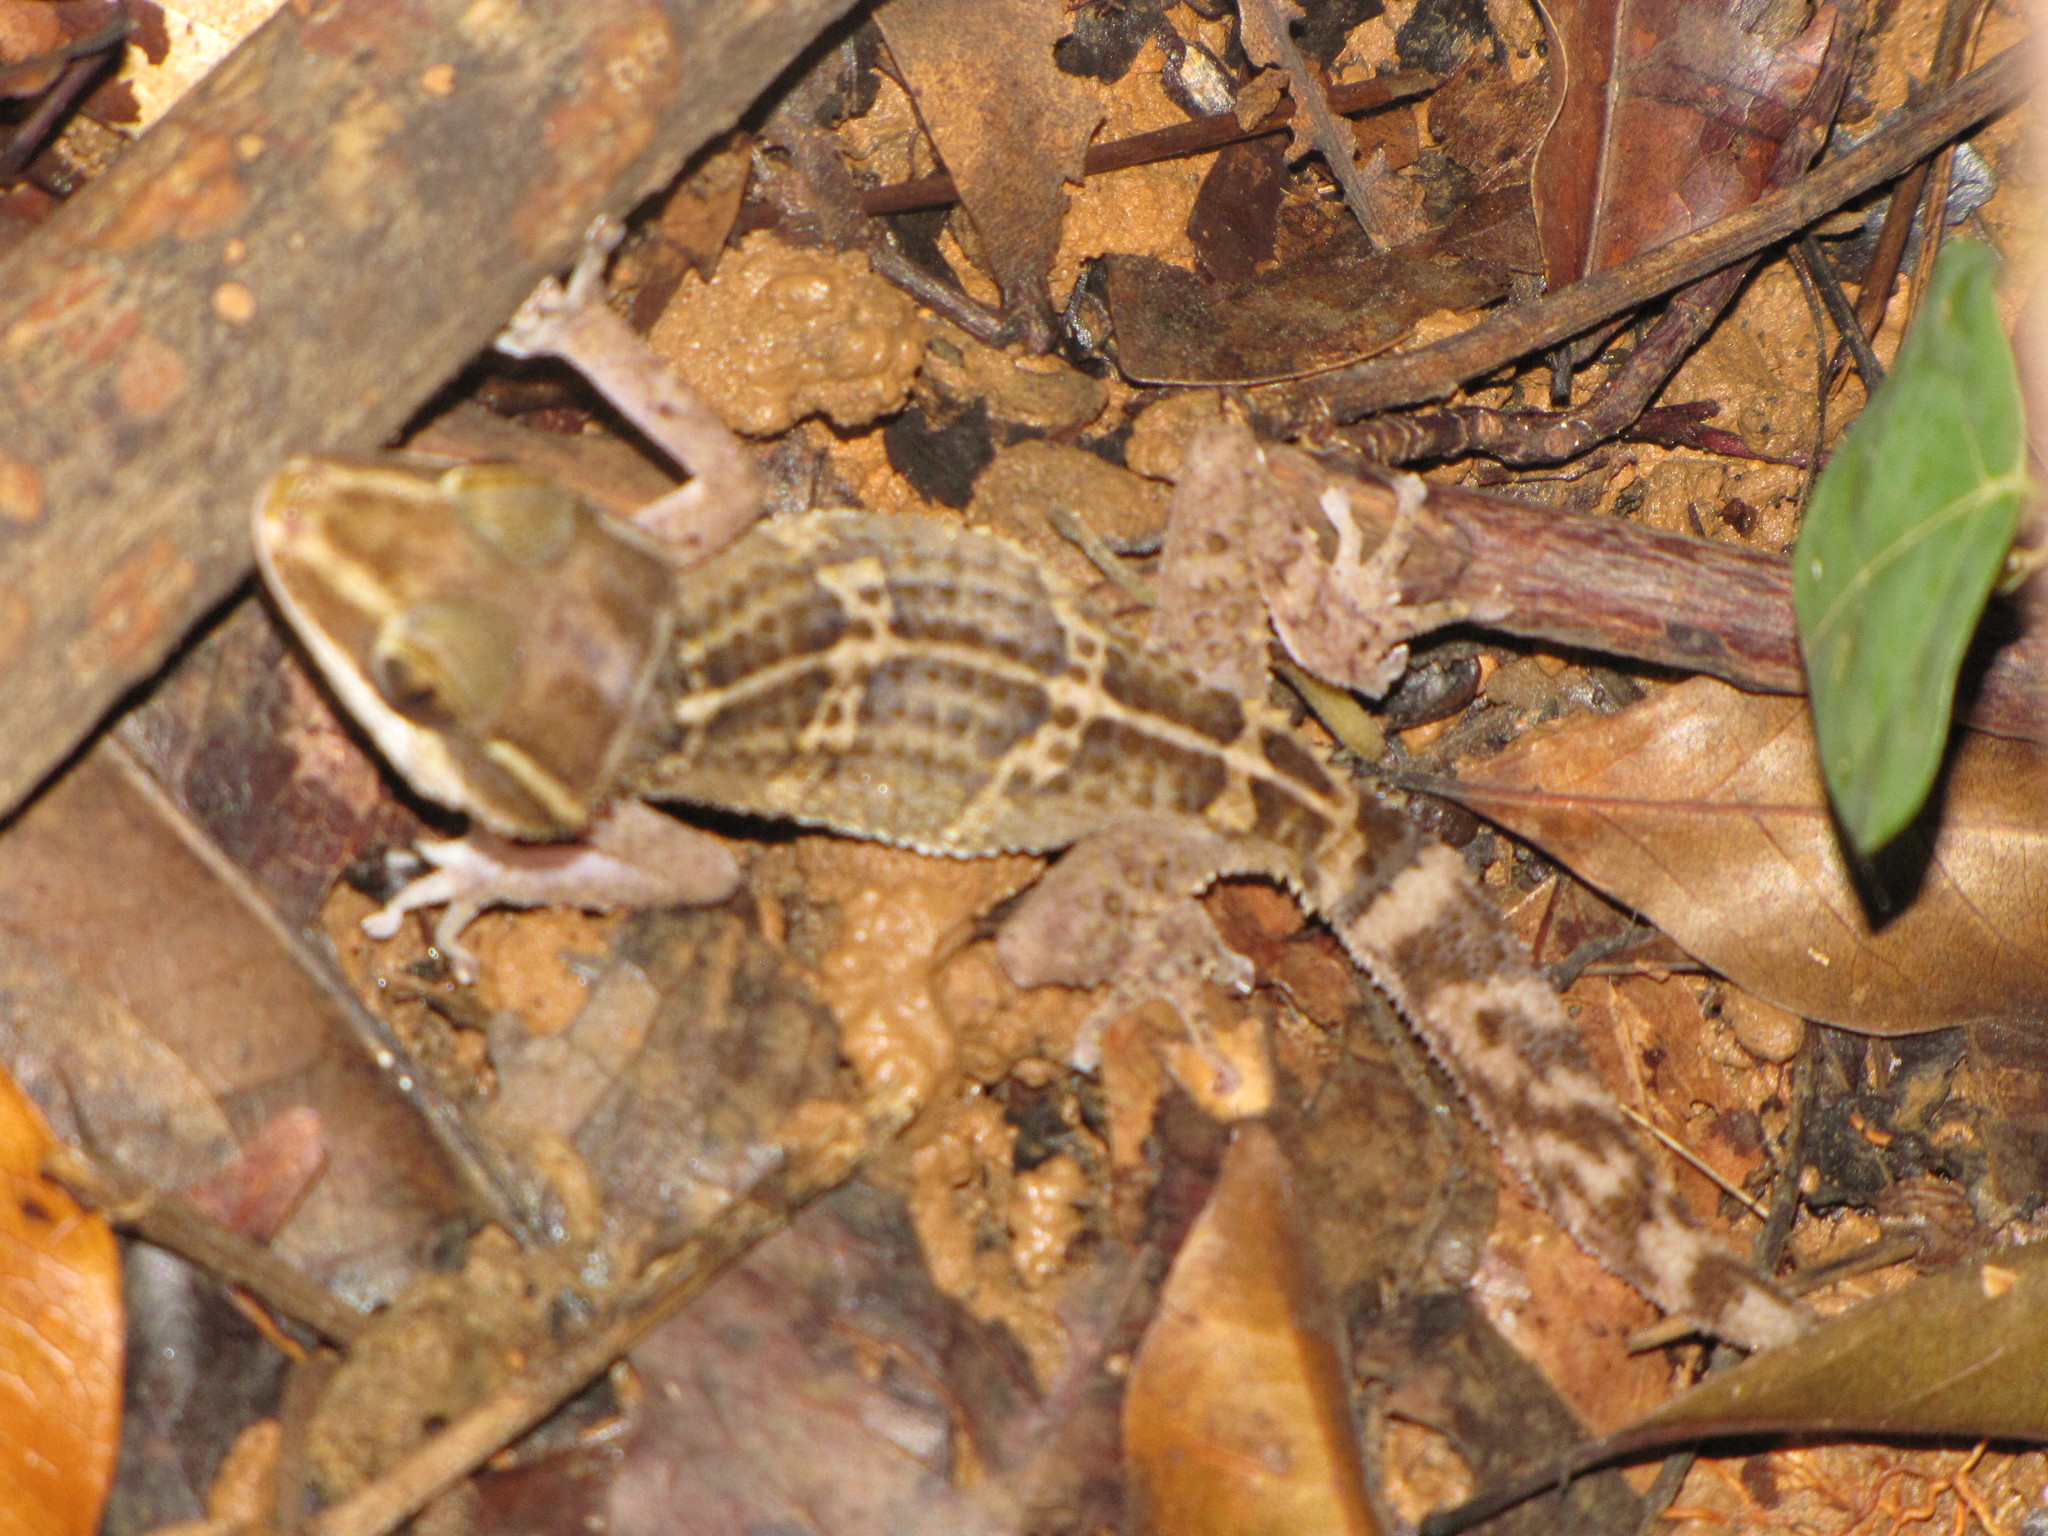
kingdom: Animalia
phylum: Chordata
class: Squamata
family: Gekkonidae
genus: Paroedura
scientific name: Paroedura stumpffi
